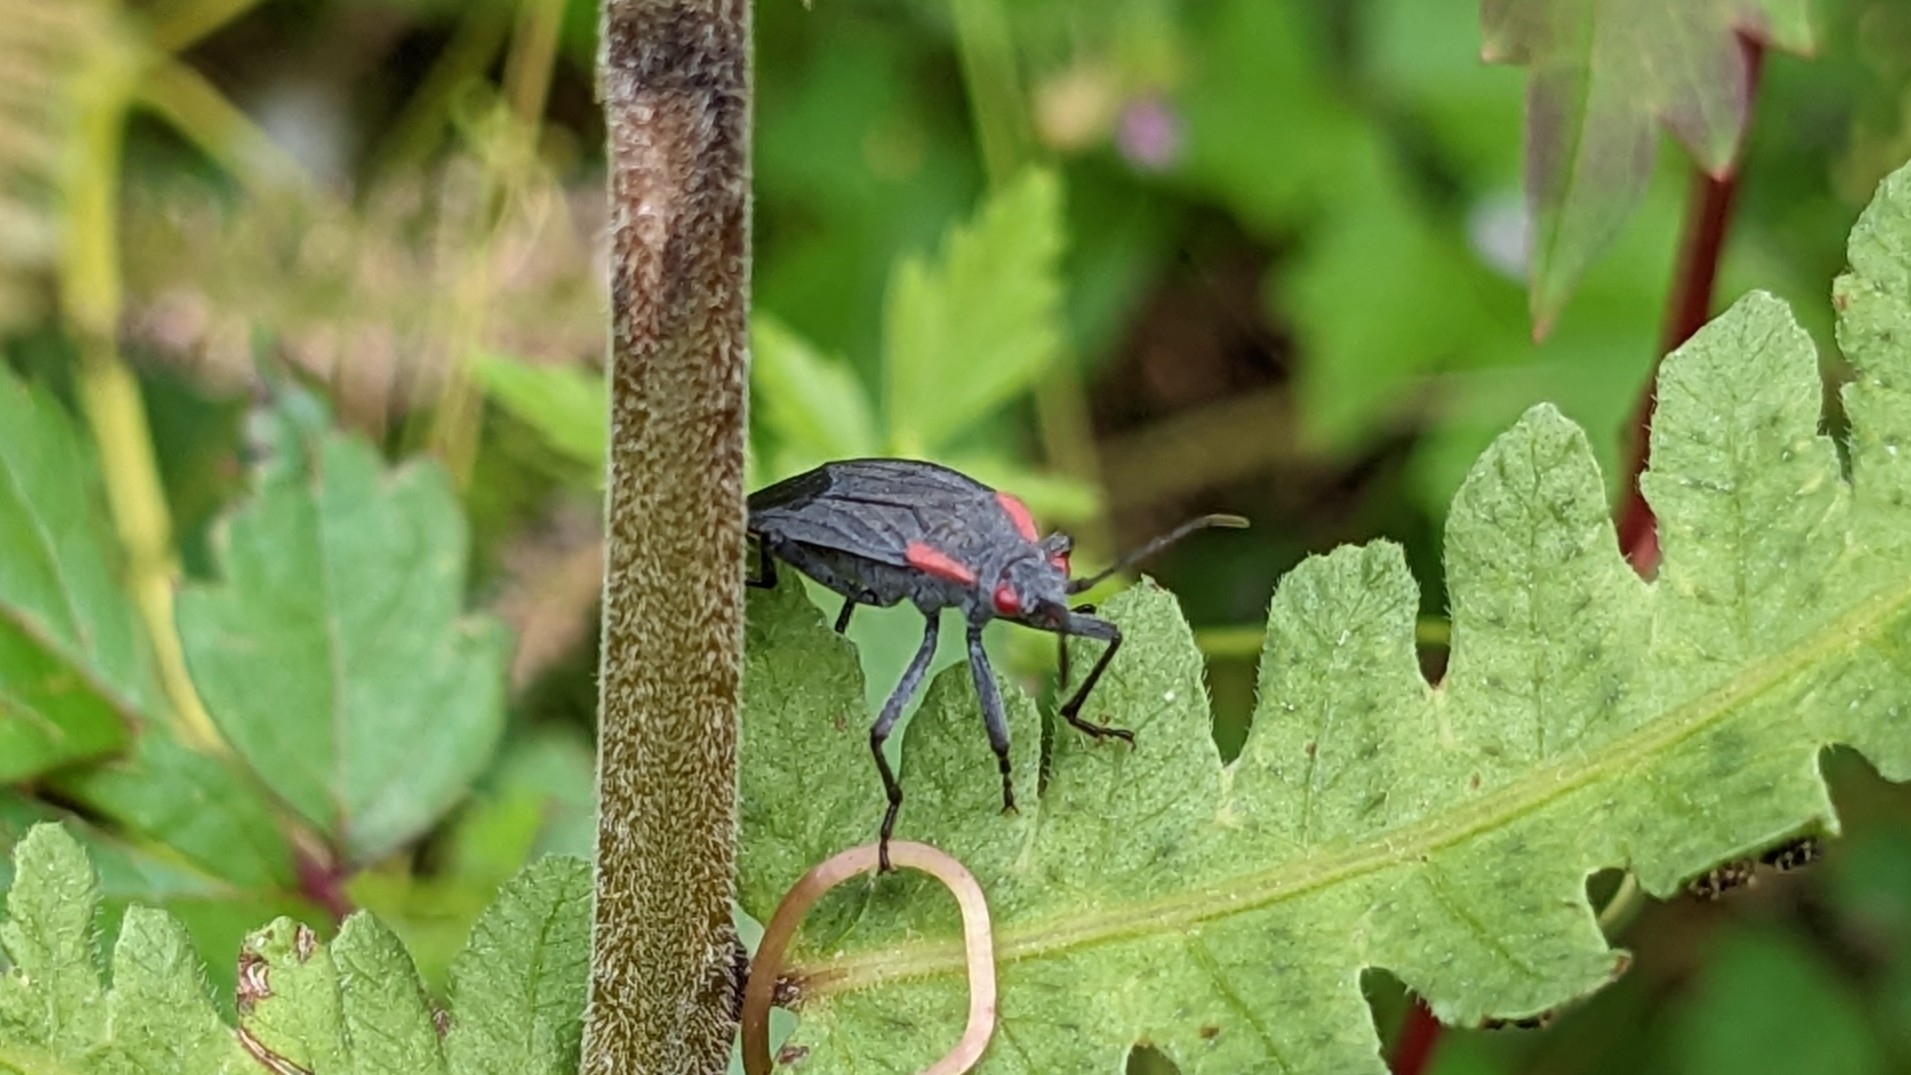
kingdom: Animalia
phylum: Arthropoda
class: Insecta
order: Hemiptera
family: Rhopalidae
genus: Jadera
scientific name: Jadera haematoloma
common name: Red-shouldered bug
